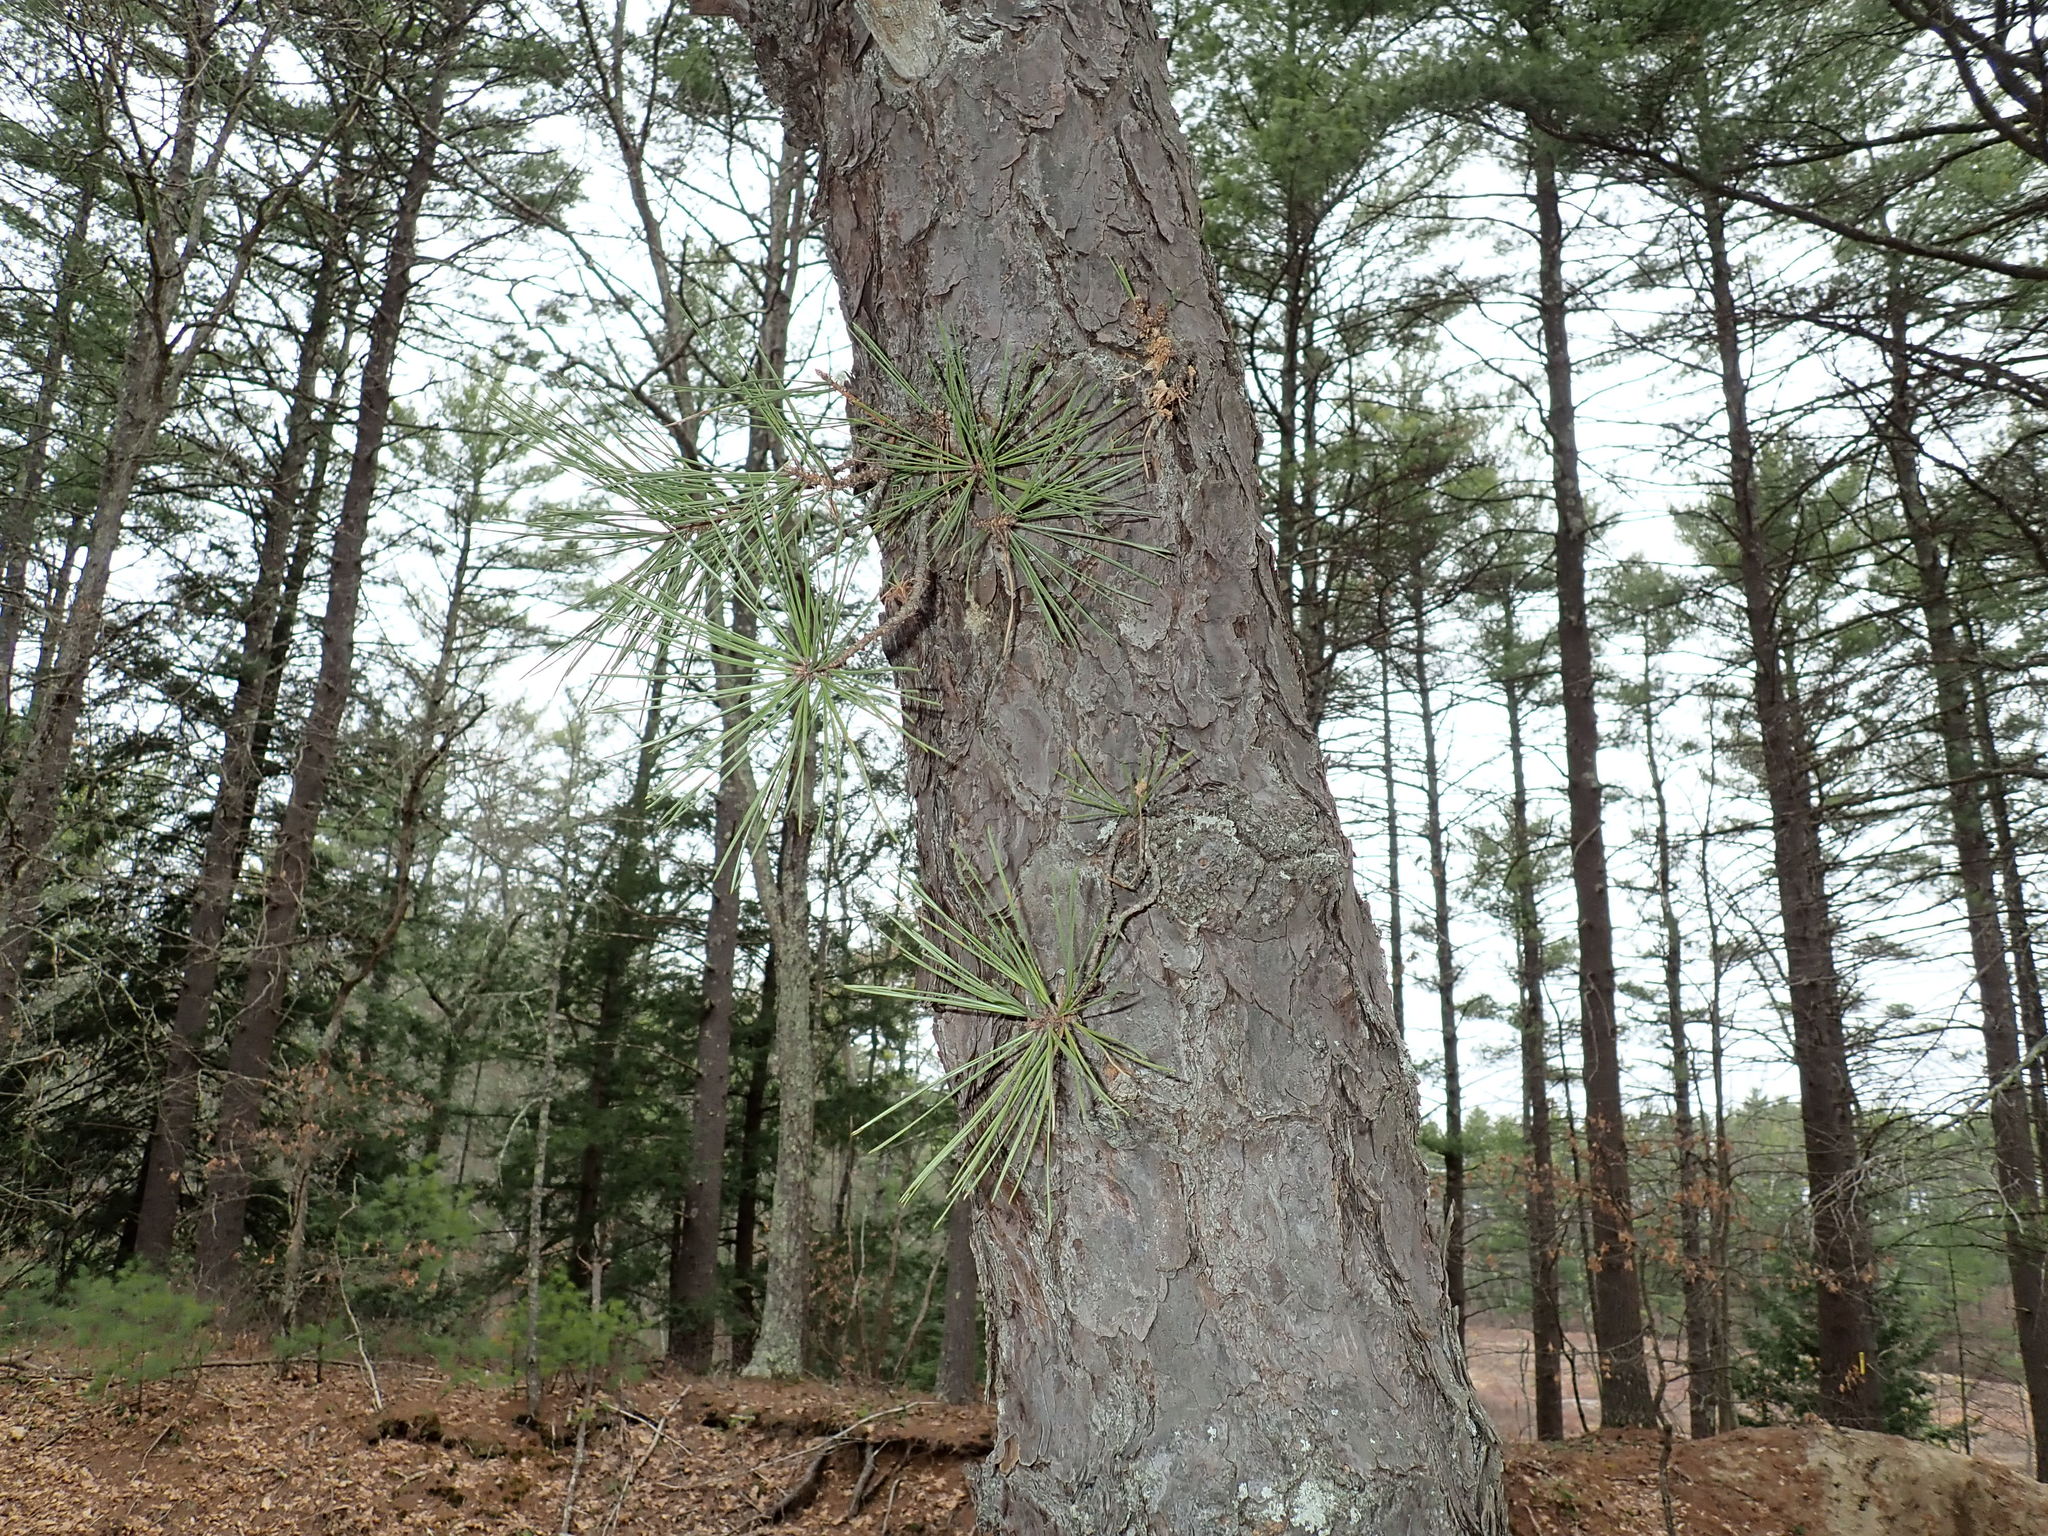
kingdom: Plantae
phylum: Tracheophyta
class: Pinopsida
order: Pinales
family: Pinaceae
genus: Pinus
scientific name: Pinus rigida
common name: Pitch pine
